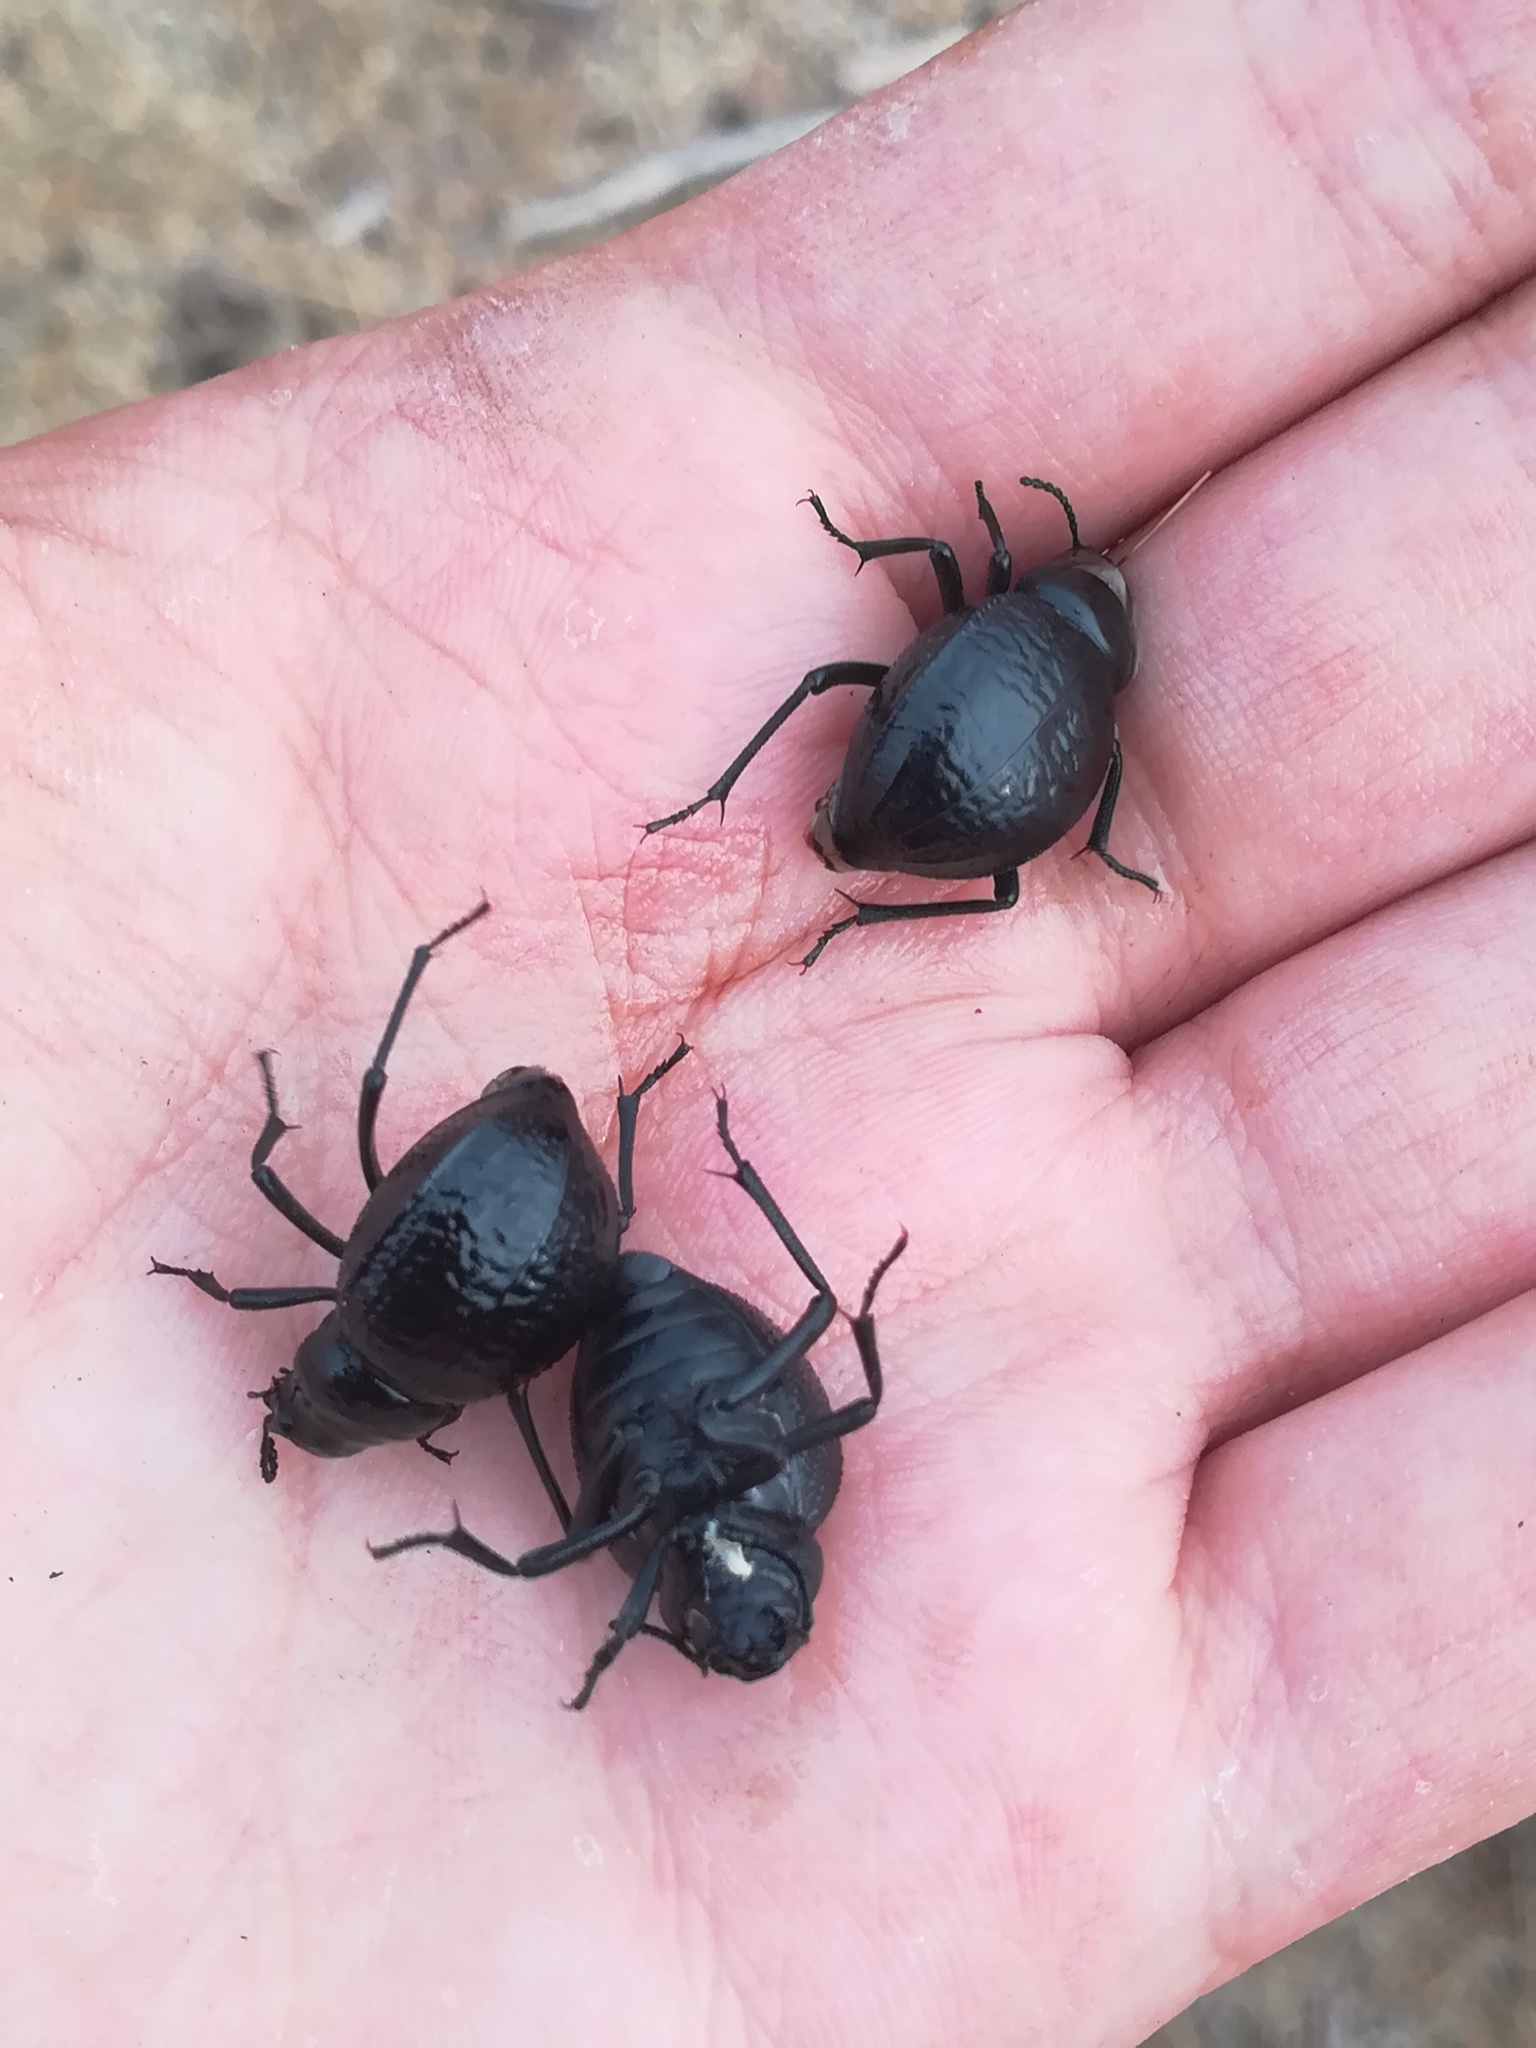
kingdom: Animalia
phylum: Arthropoda
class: Insecta
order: Coleoptera
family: Tenebrionidae
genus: Pimelia
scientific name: Pimelia undulata
